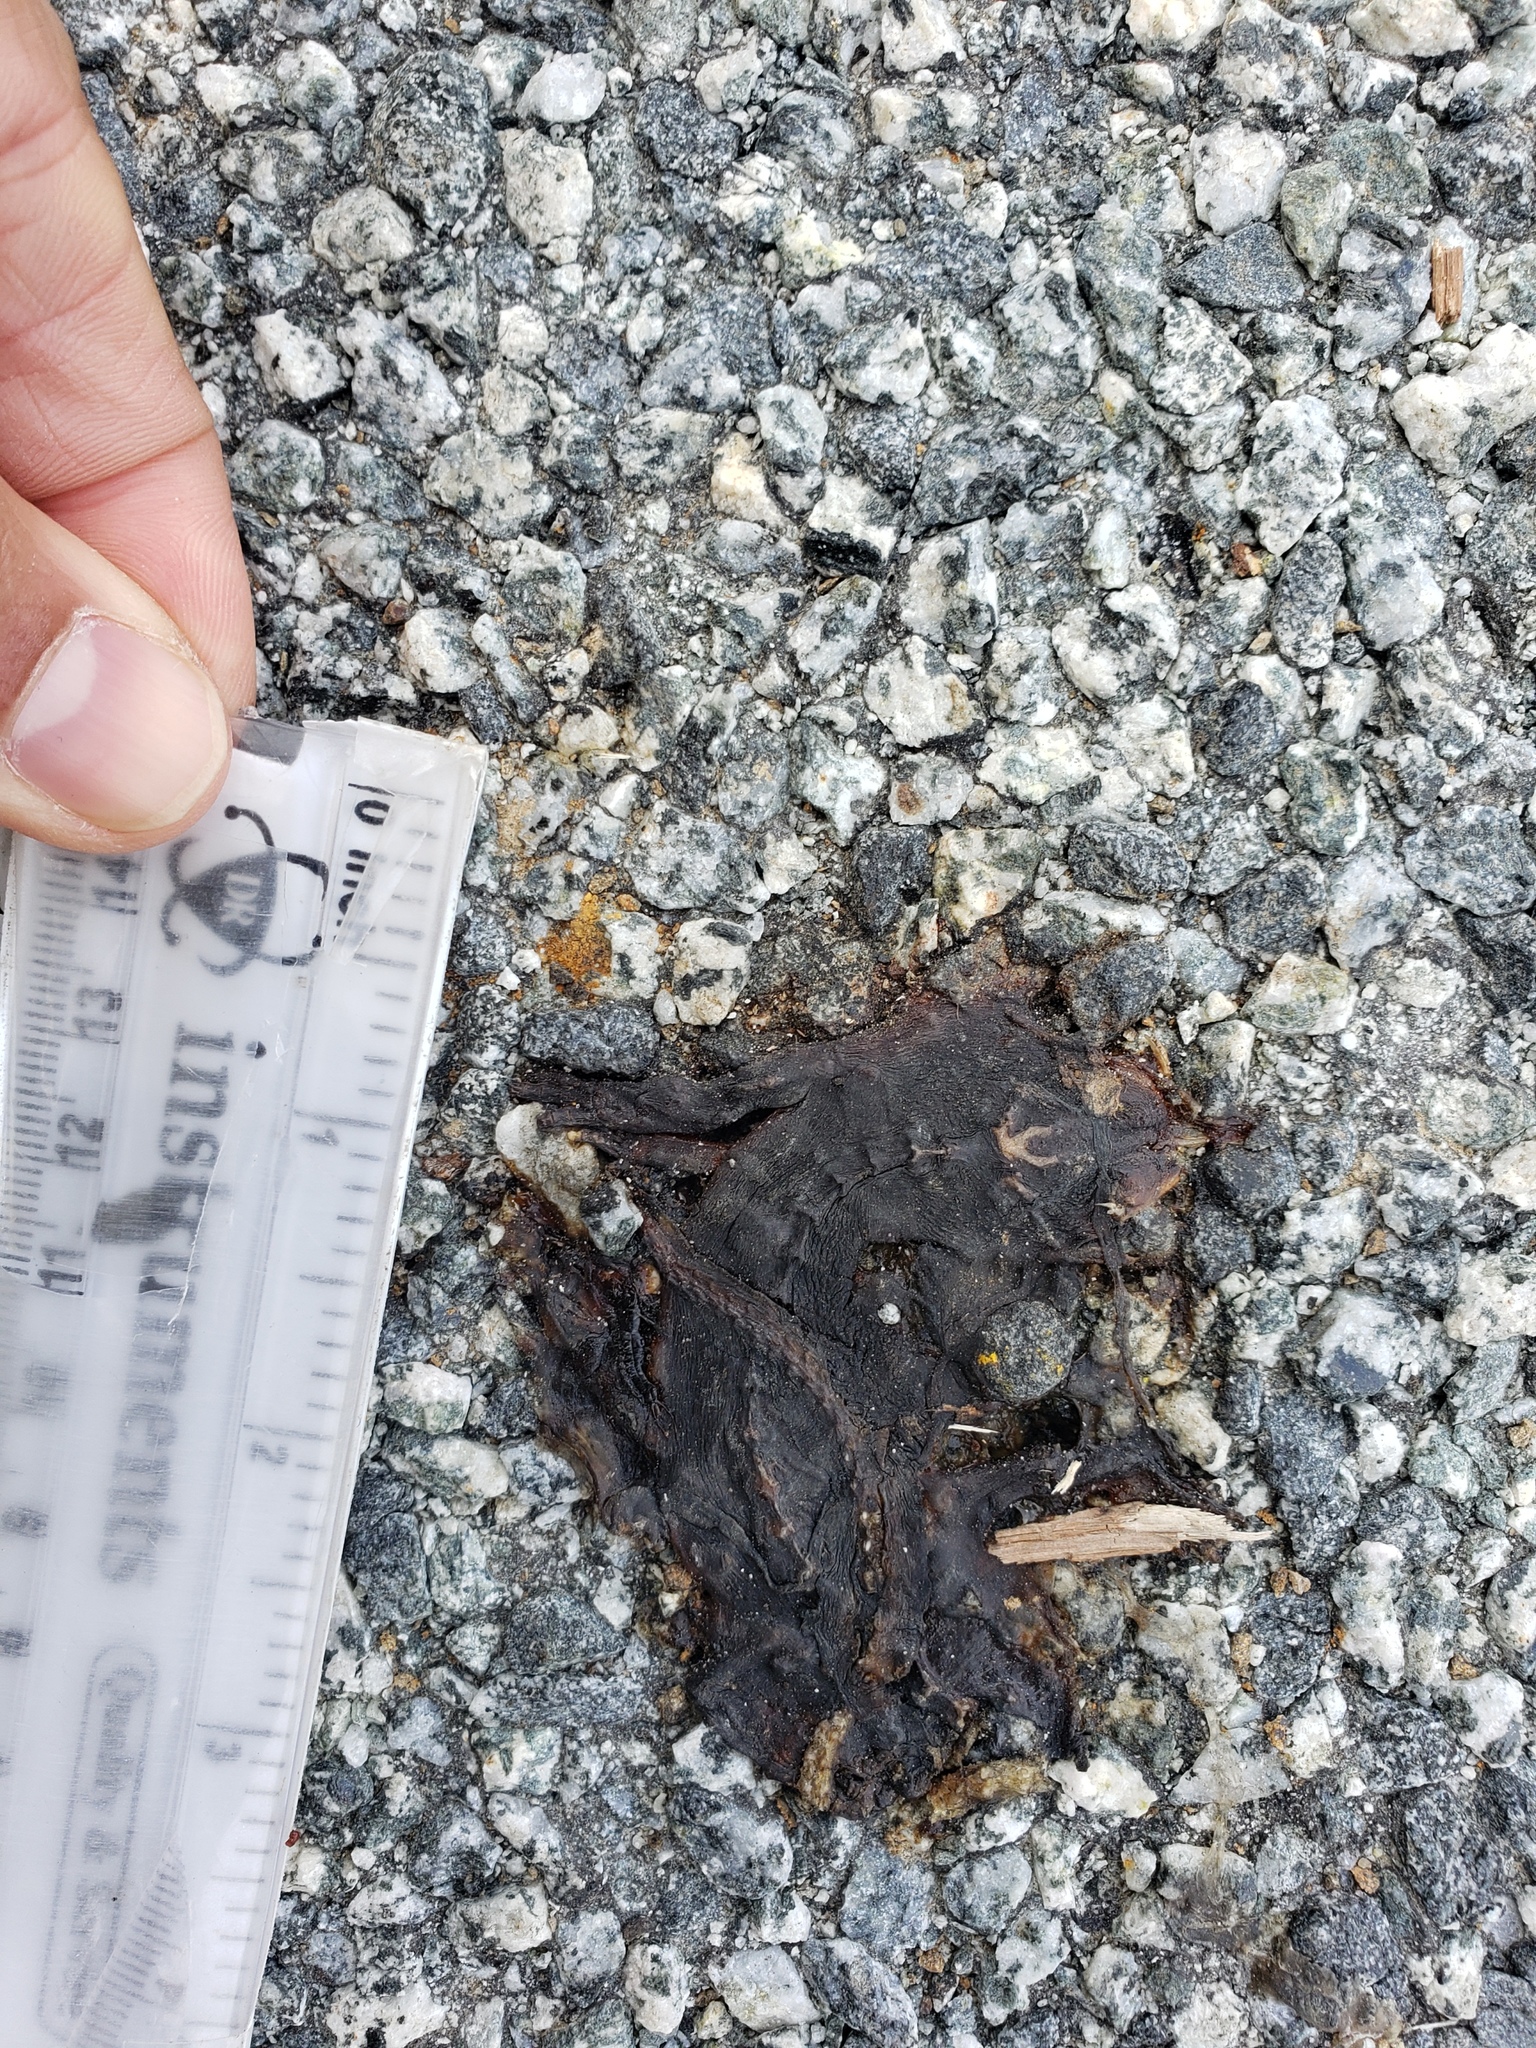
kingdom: Animalia
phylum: Chordata
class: Amphibia
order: Caudata
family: Salamandridae
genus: Taricha
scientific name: Taricha
